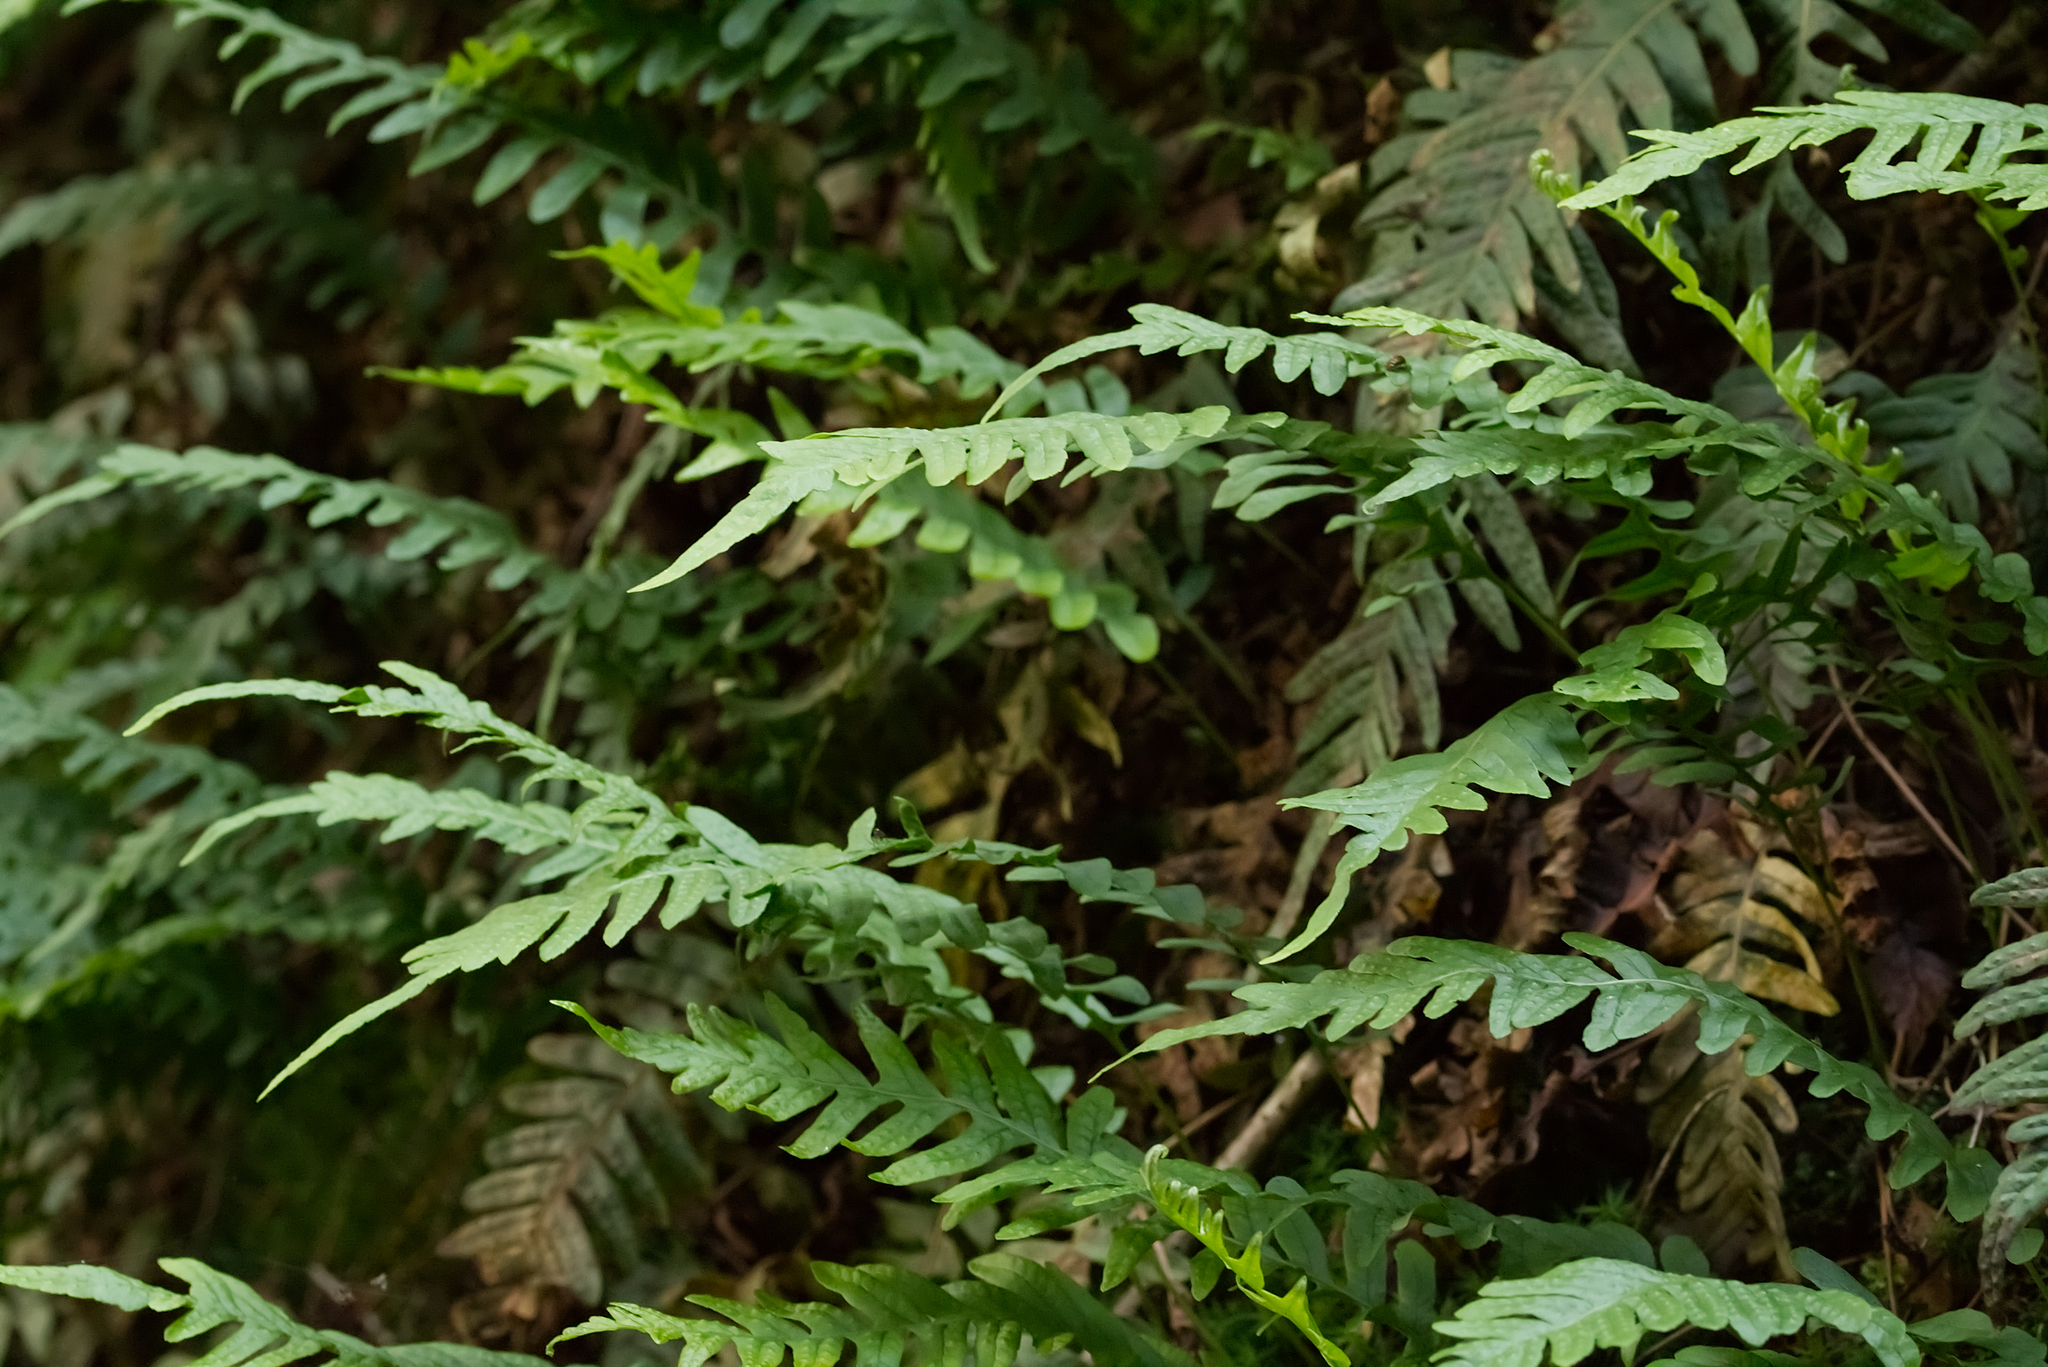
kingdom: Plantae
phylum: Tracheophyta
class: Polypodiopsida
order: Polypodiales
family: Polypodiaceae
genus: Polypodium
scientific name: Polypodium vulgare
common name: Common polypody
